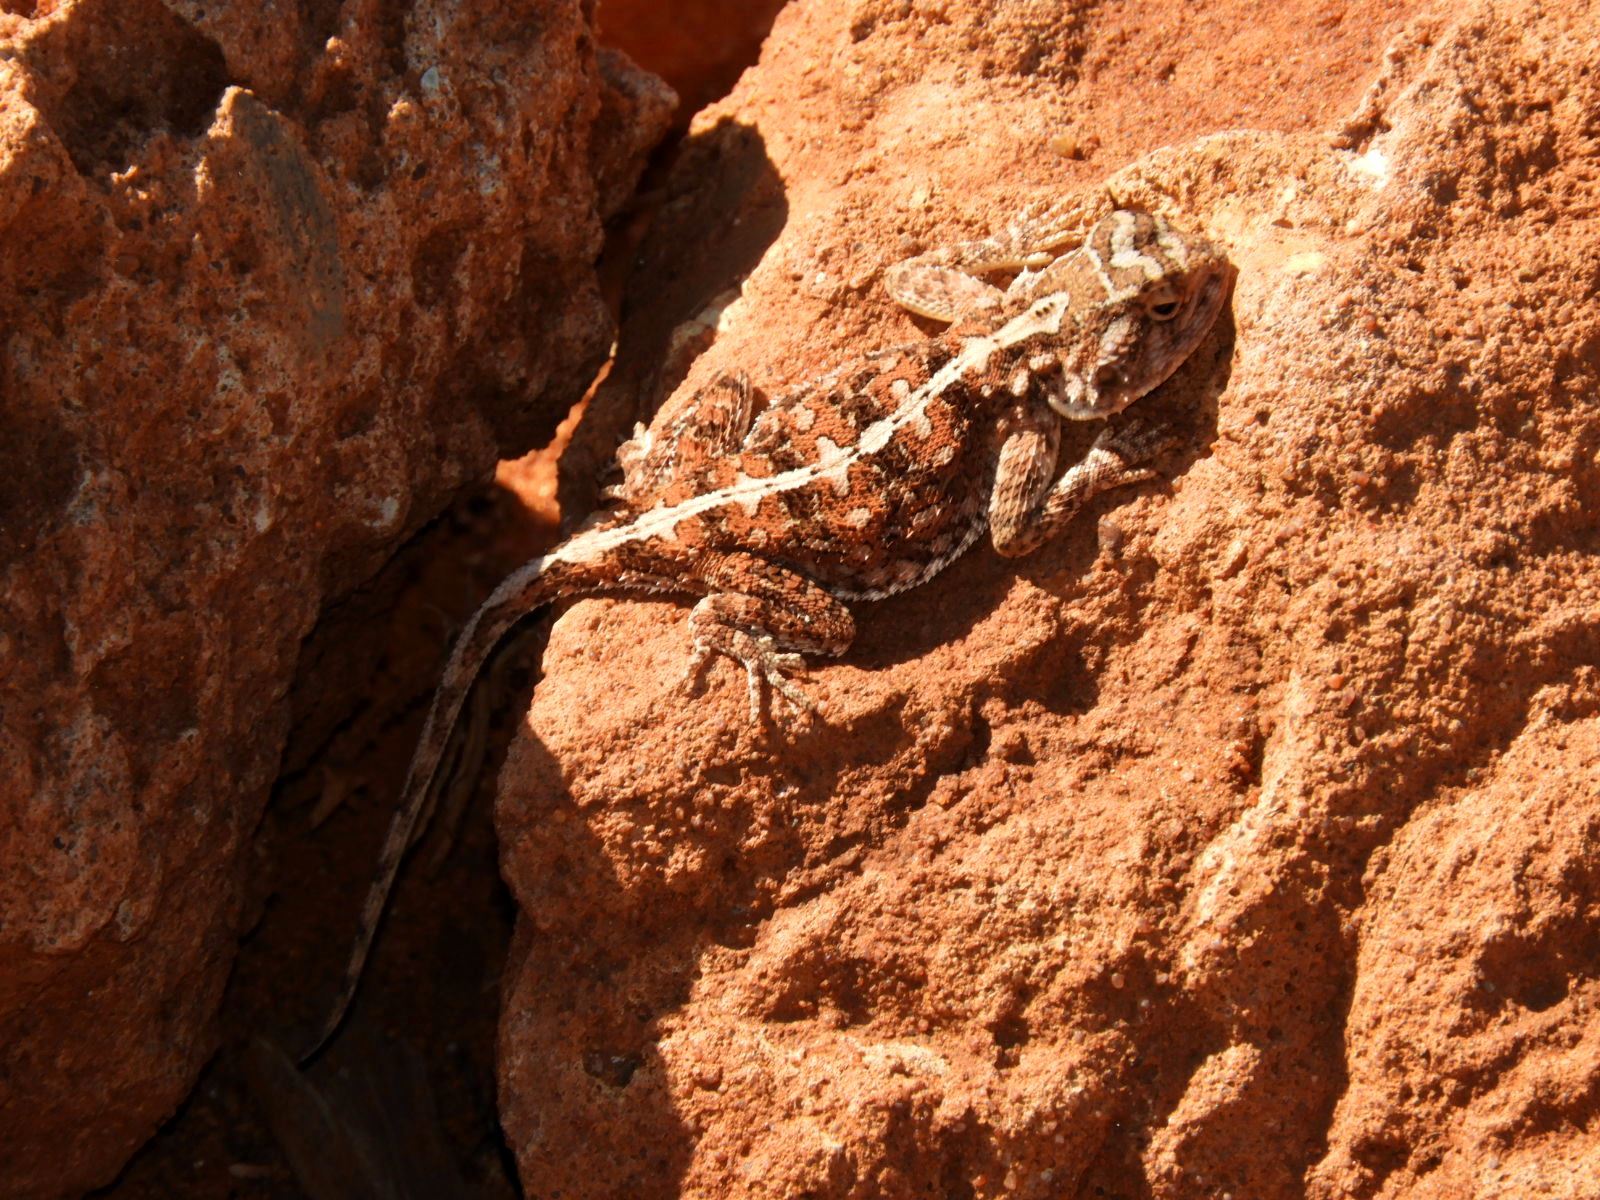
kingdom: Animalia
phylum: Chordata
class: Squamata
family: Agamidae
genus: Agama
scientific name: Agama aculeata
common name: Common ground agama
